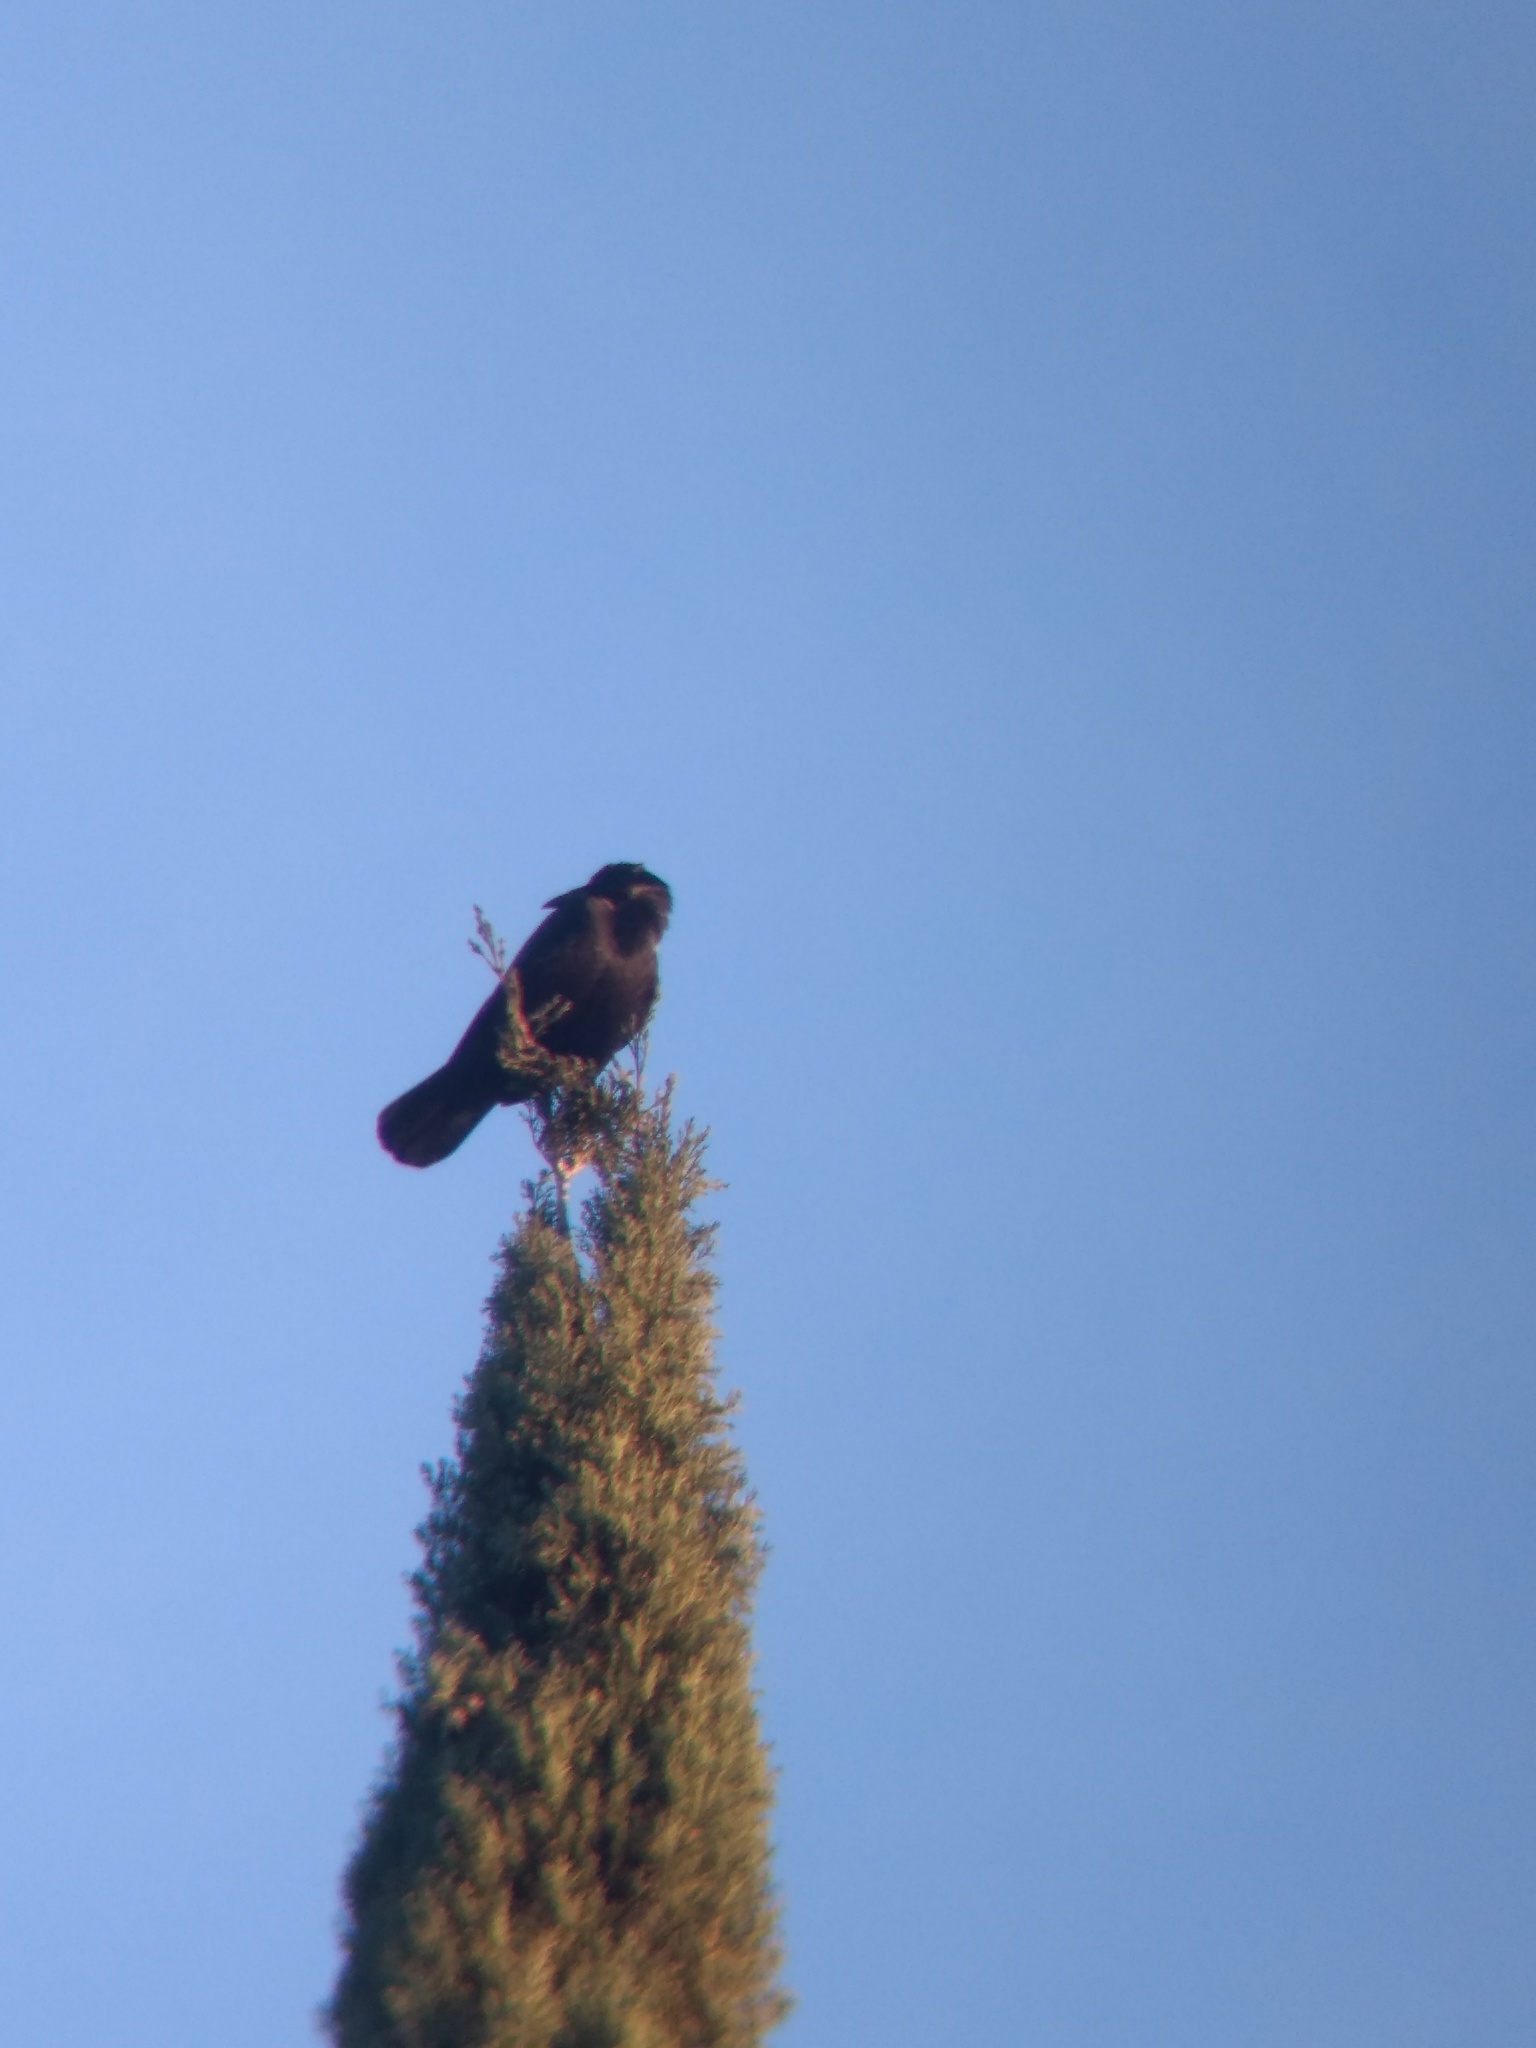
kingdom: Animalia
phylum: Chordata
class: Aves
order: Passeriformes
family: Corvidae
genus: Corvus
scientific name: Corvus brachyrhynchos
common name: American crow
